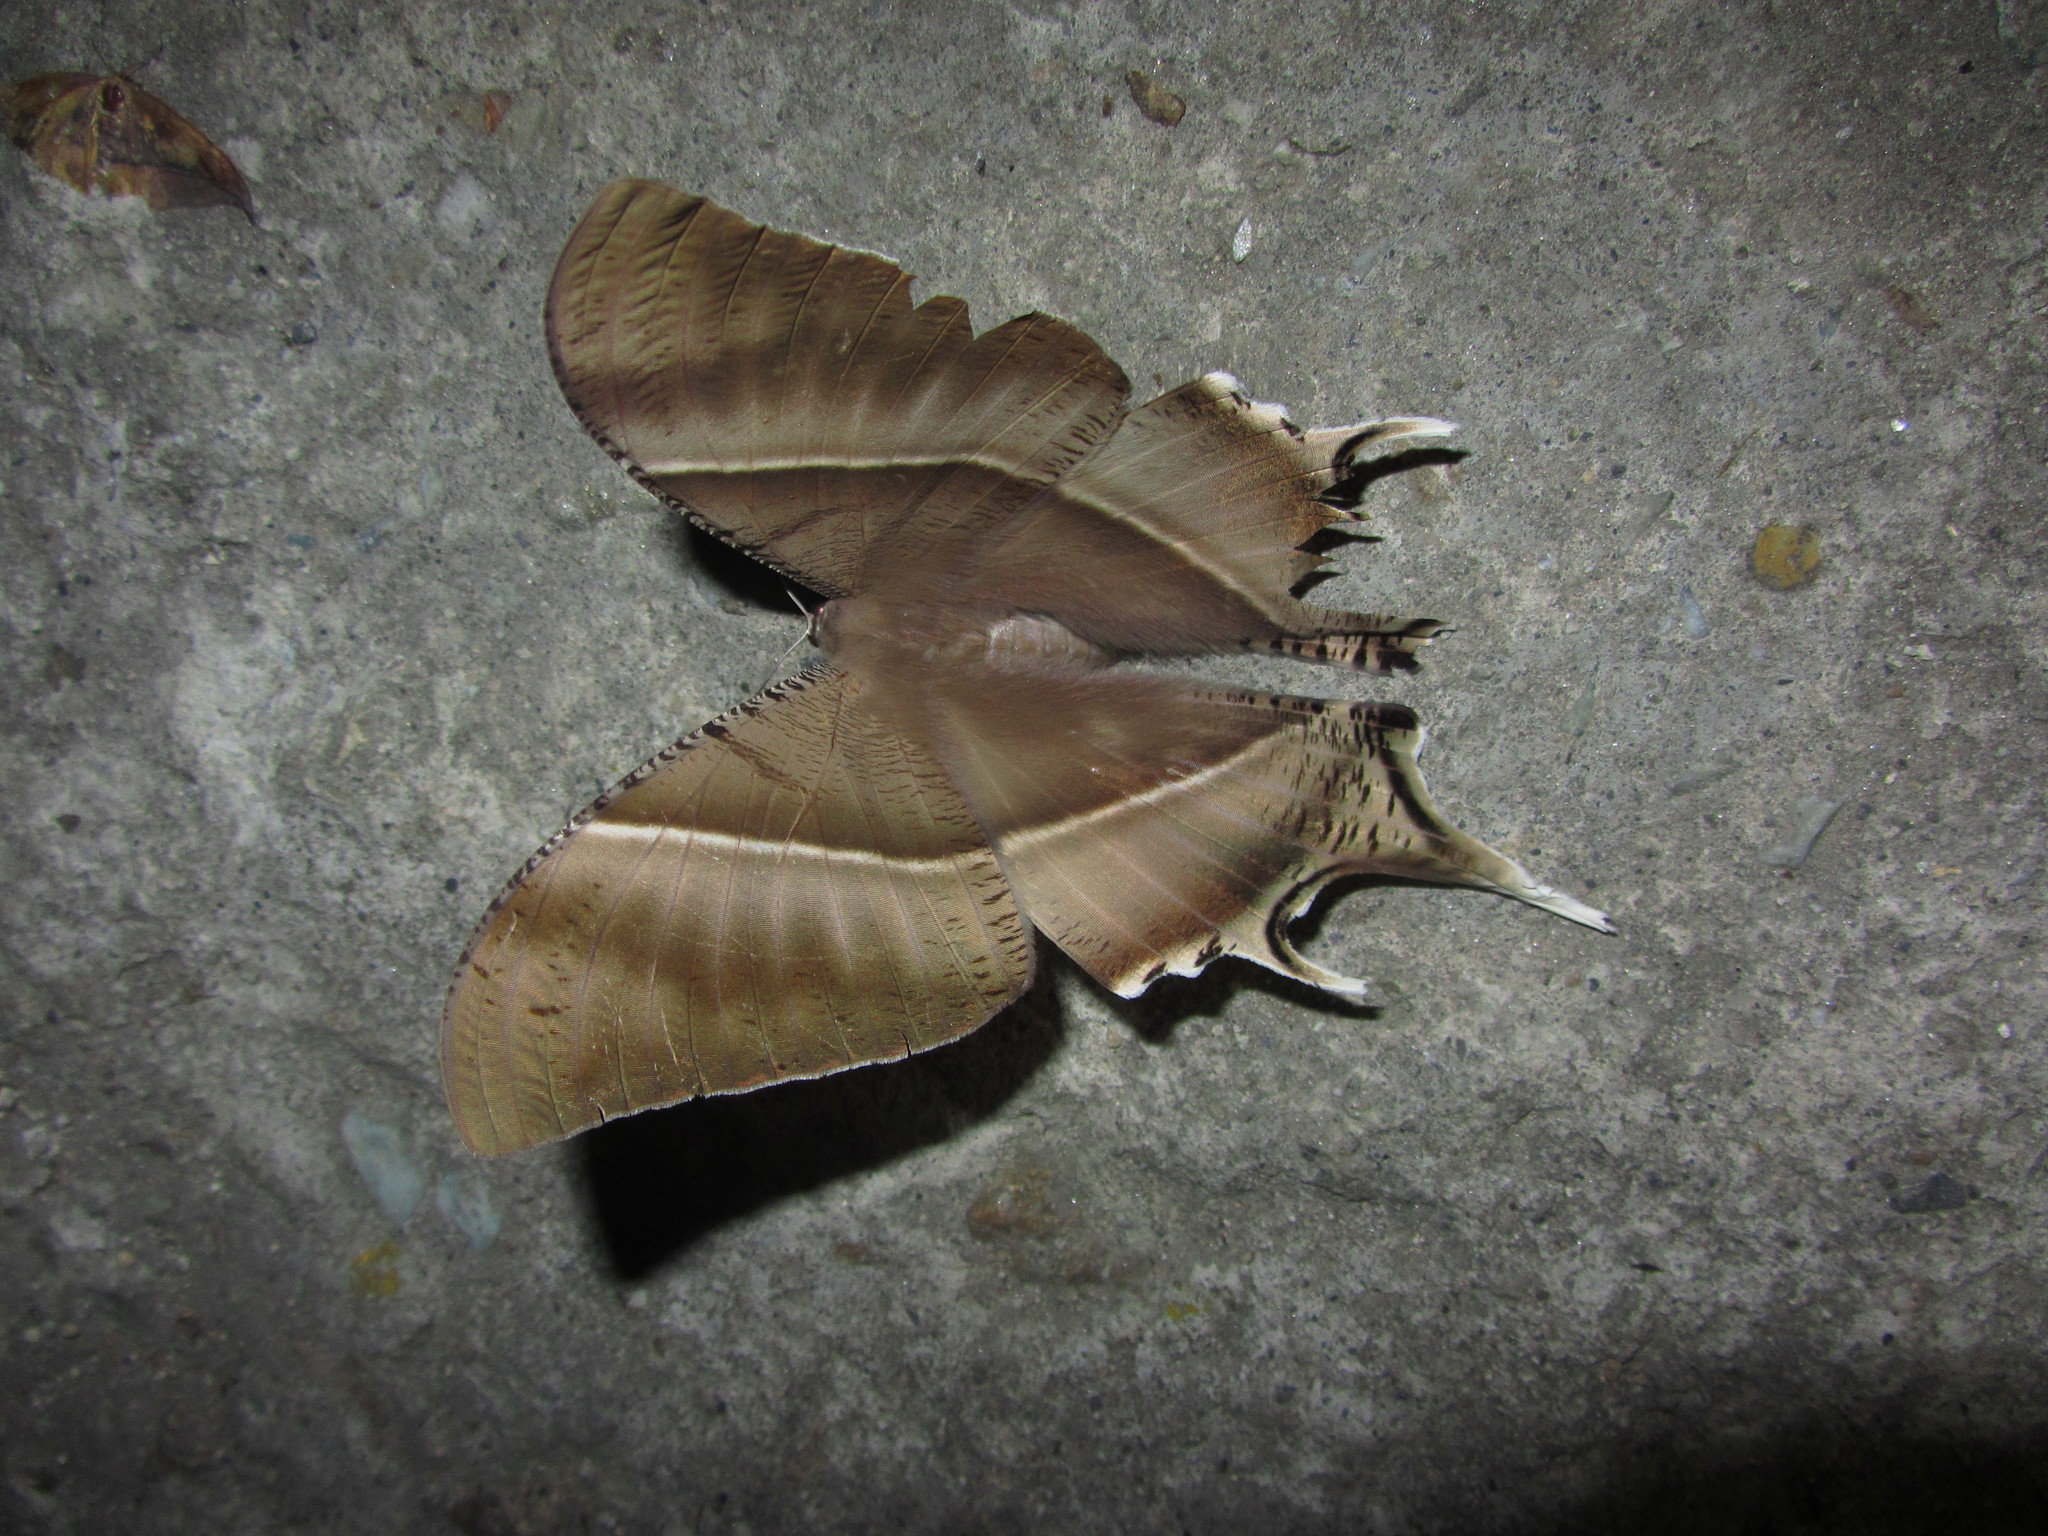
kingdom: Animalia
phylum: Arthropoda
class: Insecta
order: Lepidoptera
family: Uraniidae
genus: Lyssa
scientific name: Lyssa zampa
